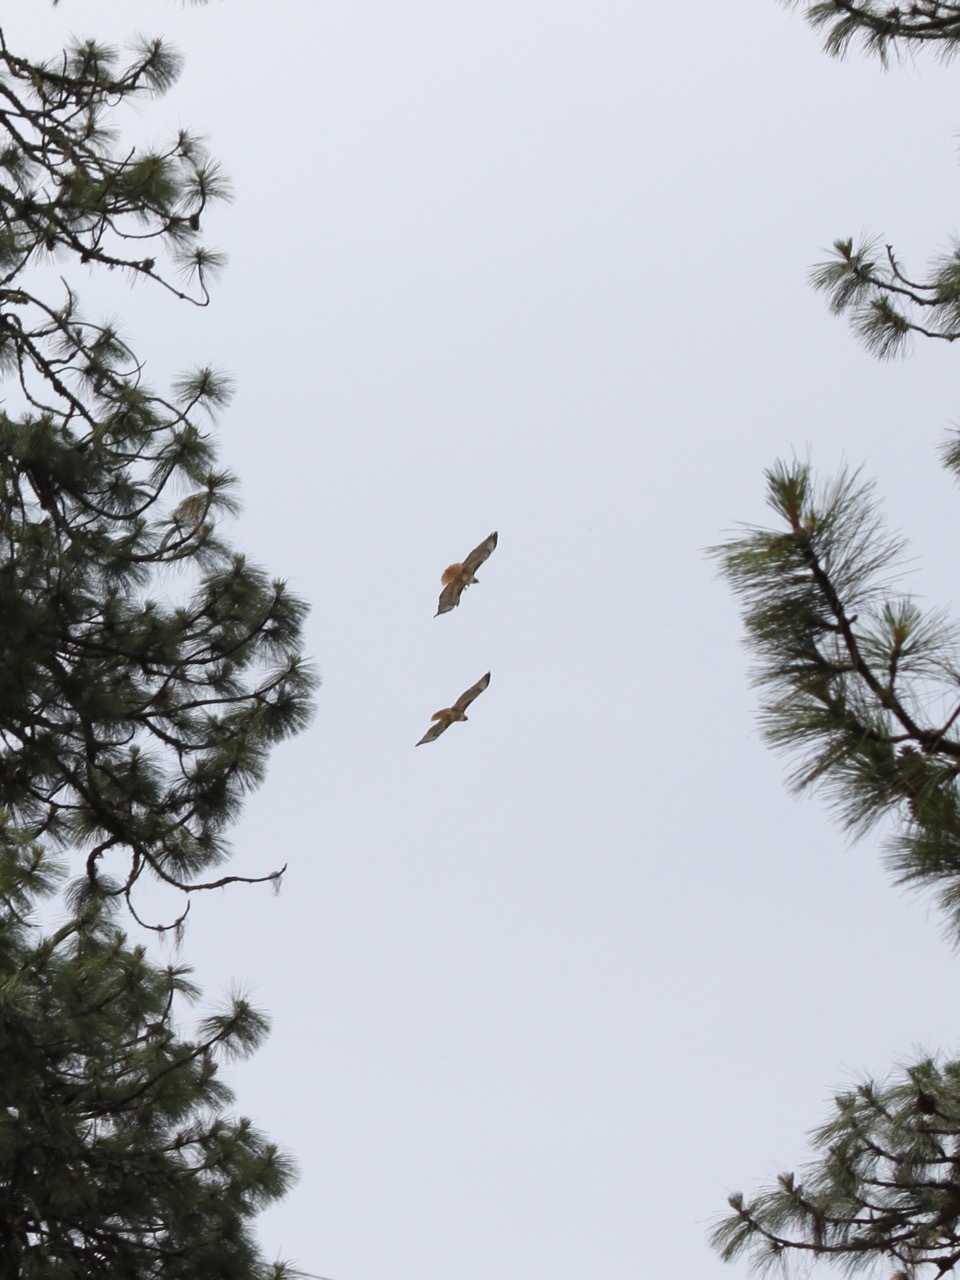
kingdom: Animalia
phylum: Chordata
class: Aves
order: Accipitriformes
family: Accipitridae
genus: Buteo
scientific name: Buteo jamaicensis
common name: Red-tailed hawk
